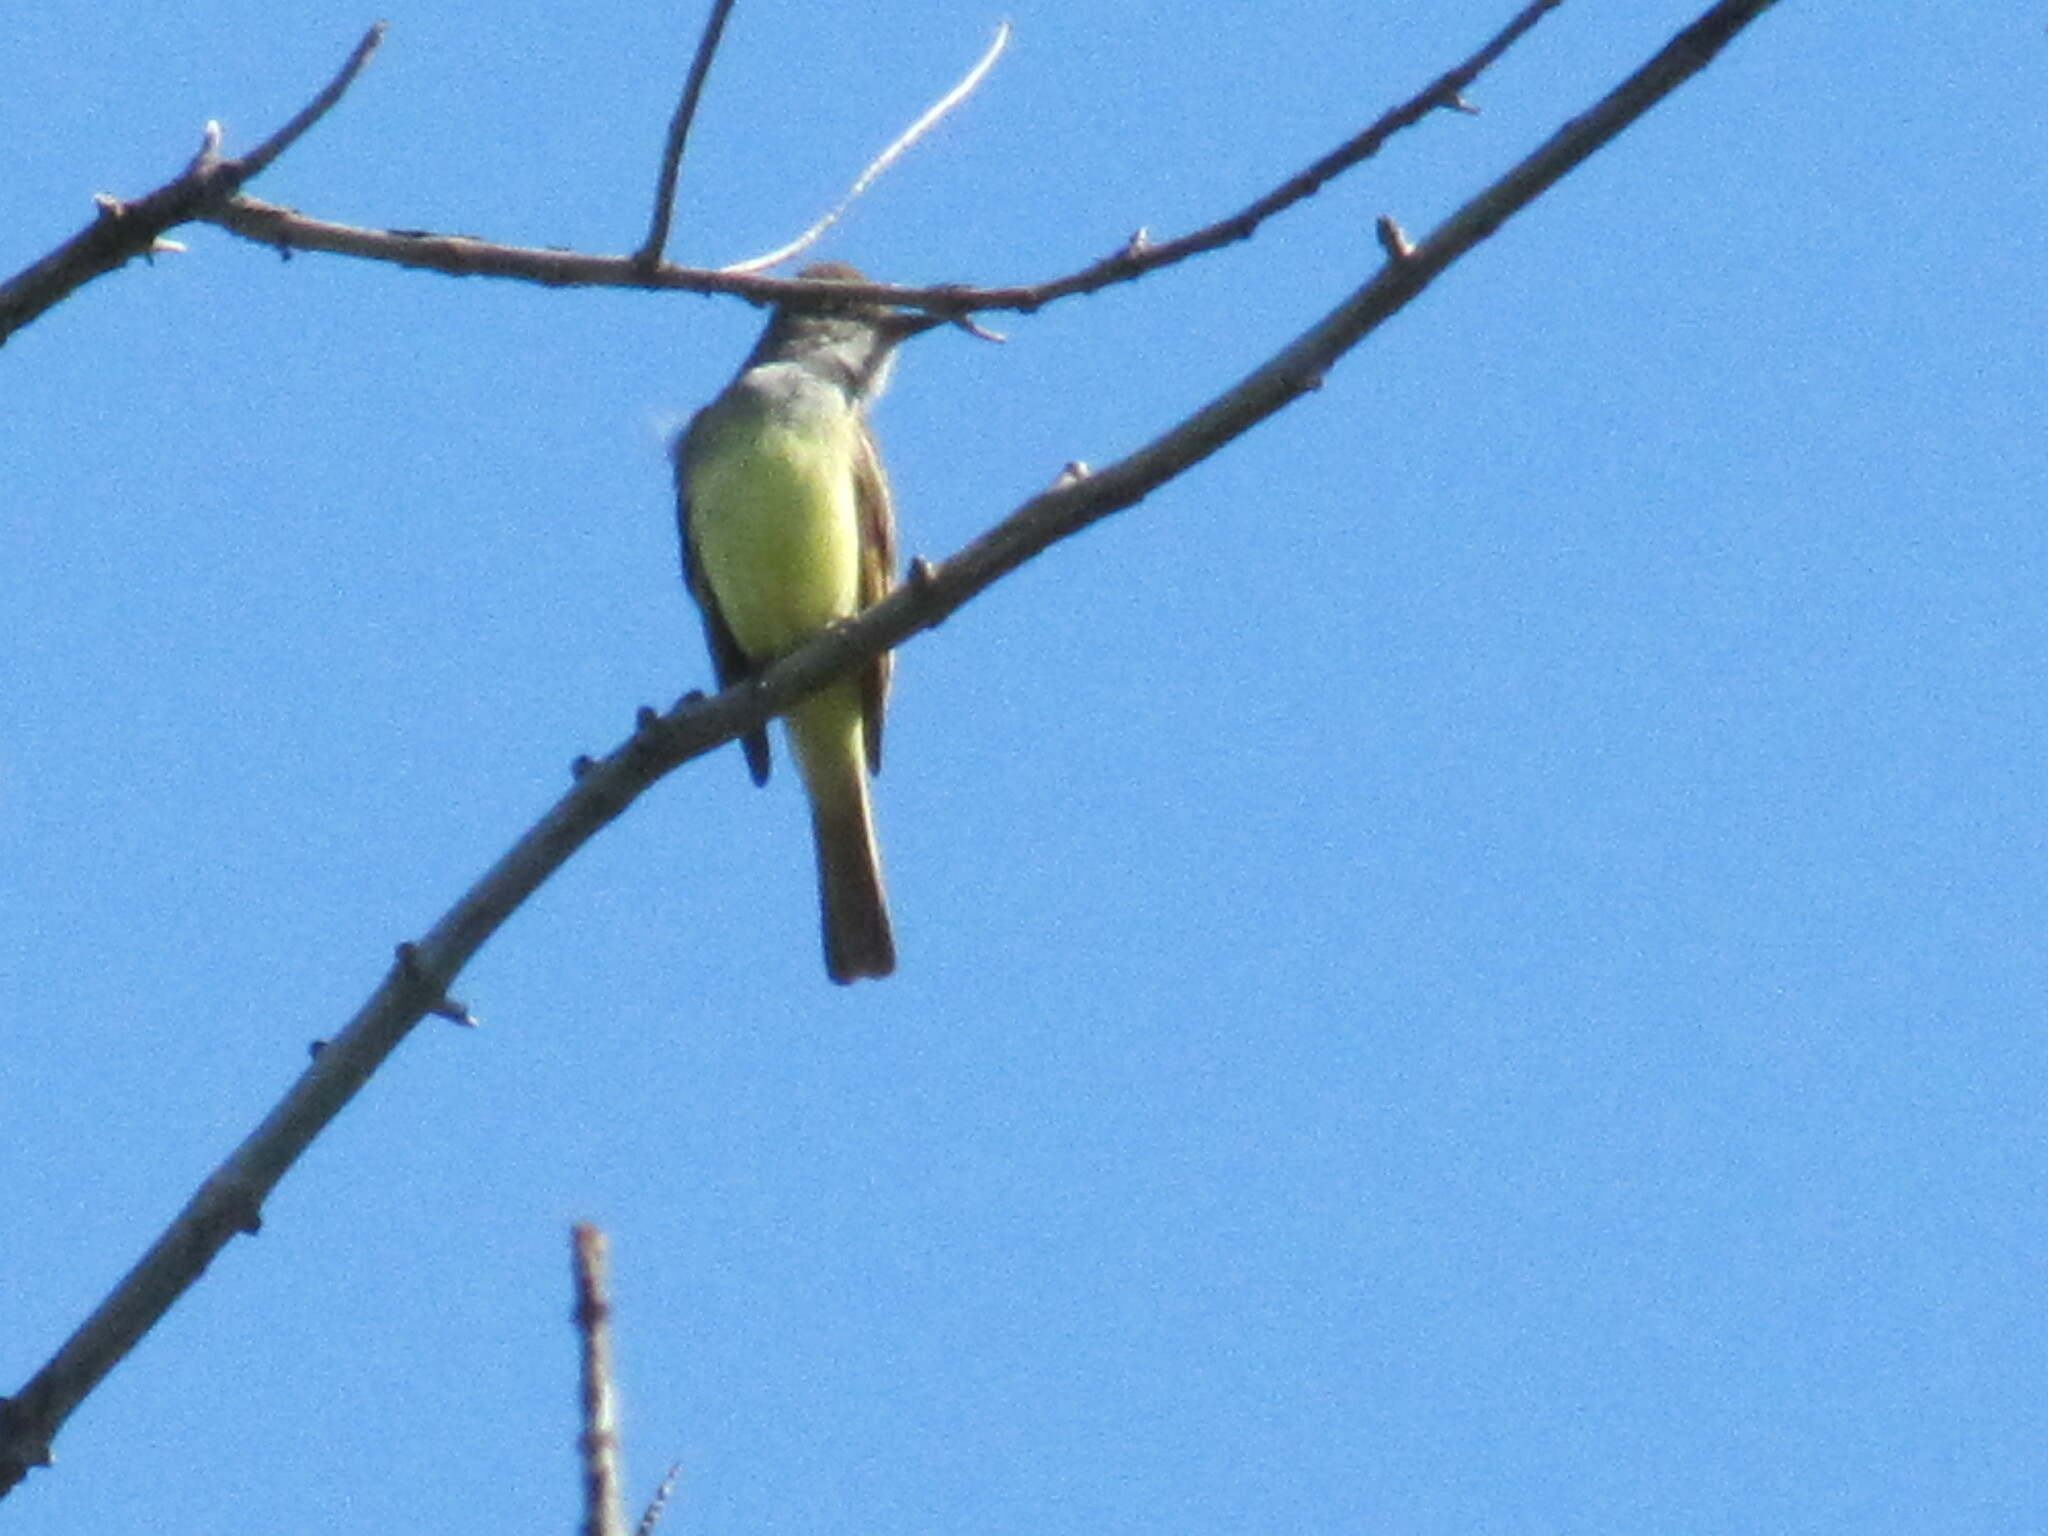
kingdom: Animalia
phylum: Chordata
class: Aves
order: Passeriformes
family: Tyrannidae
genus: Myiarchus
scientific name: Myiarchus crinitus
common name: Great crested flycatcher
